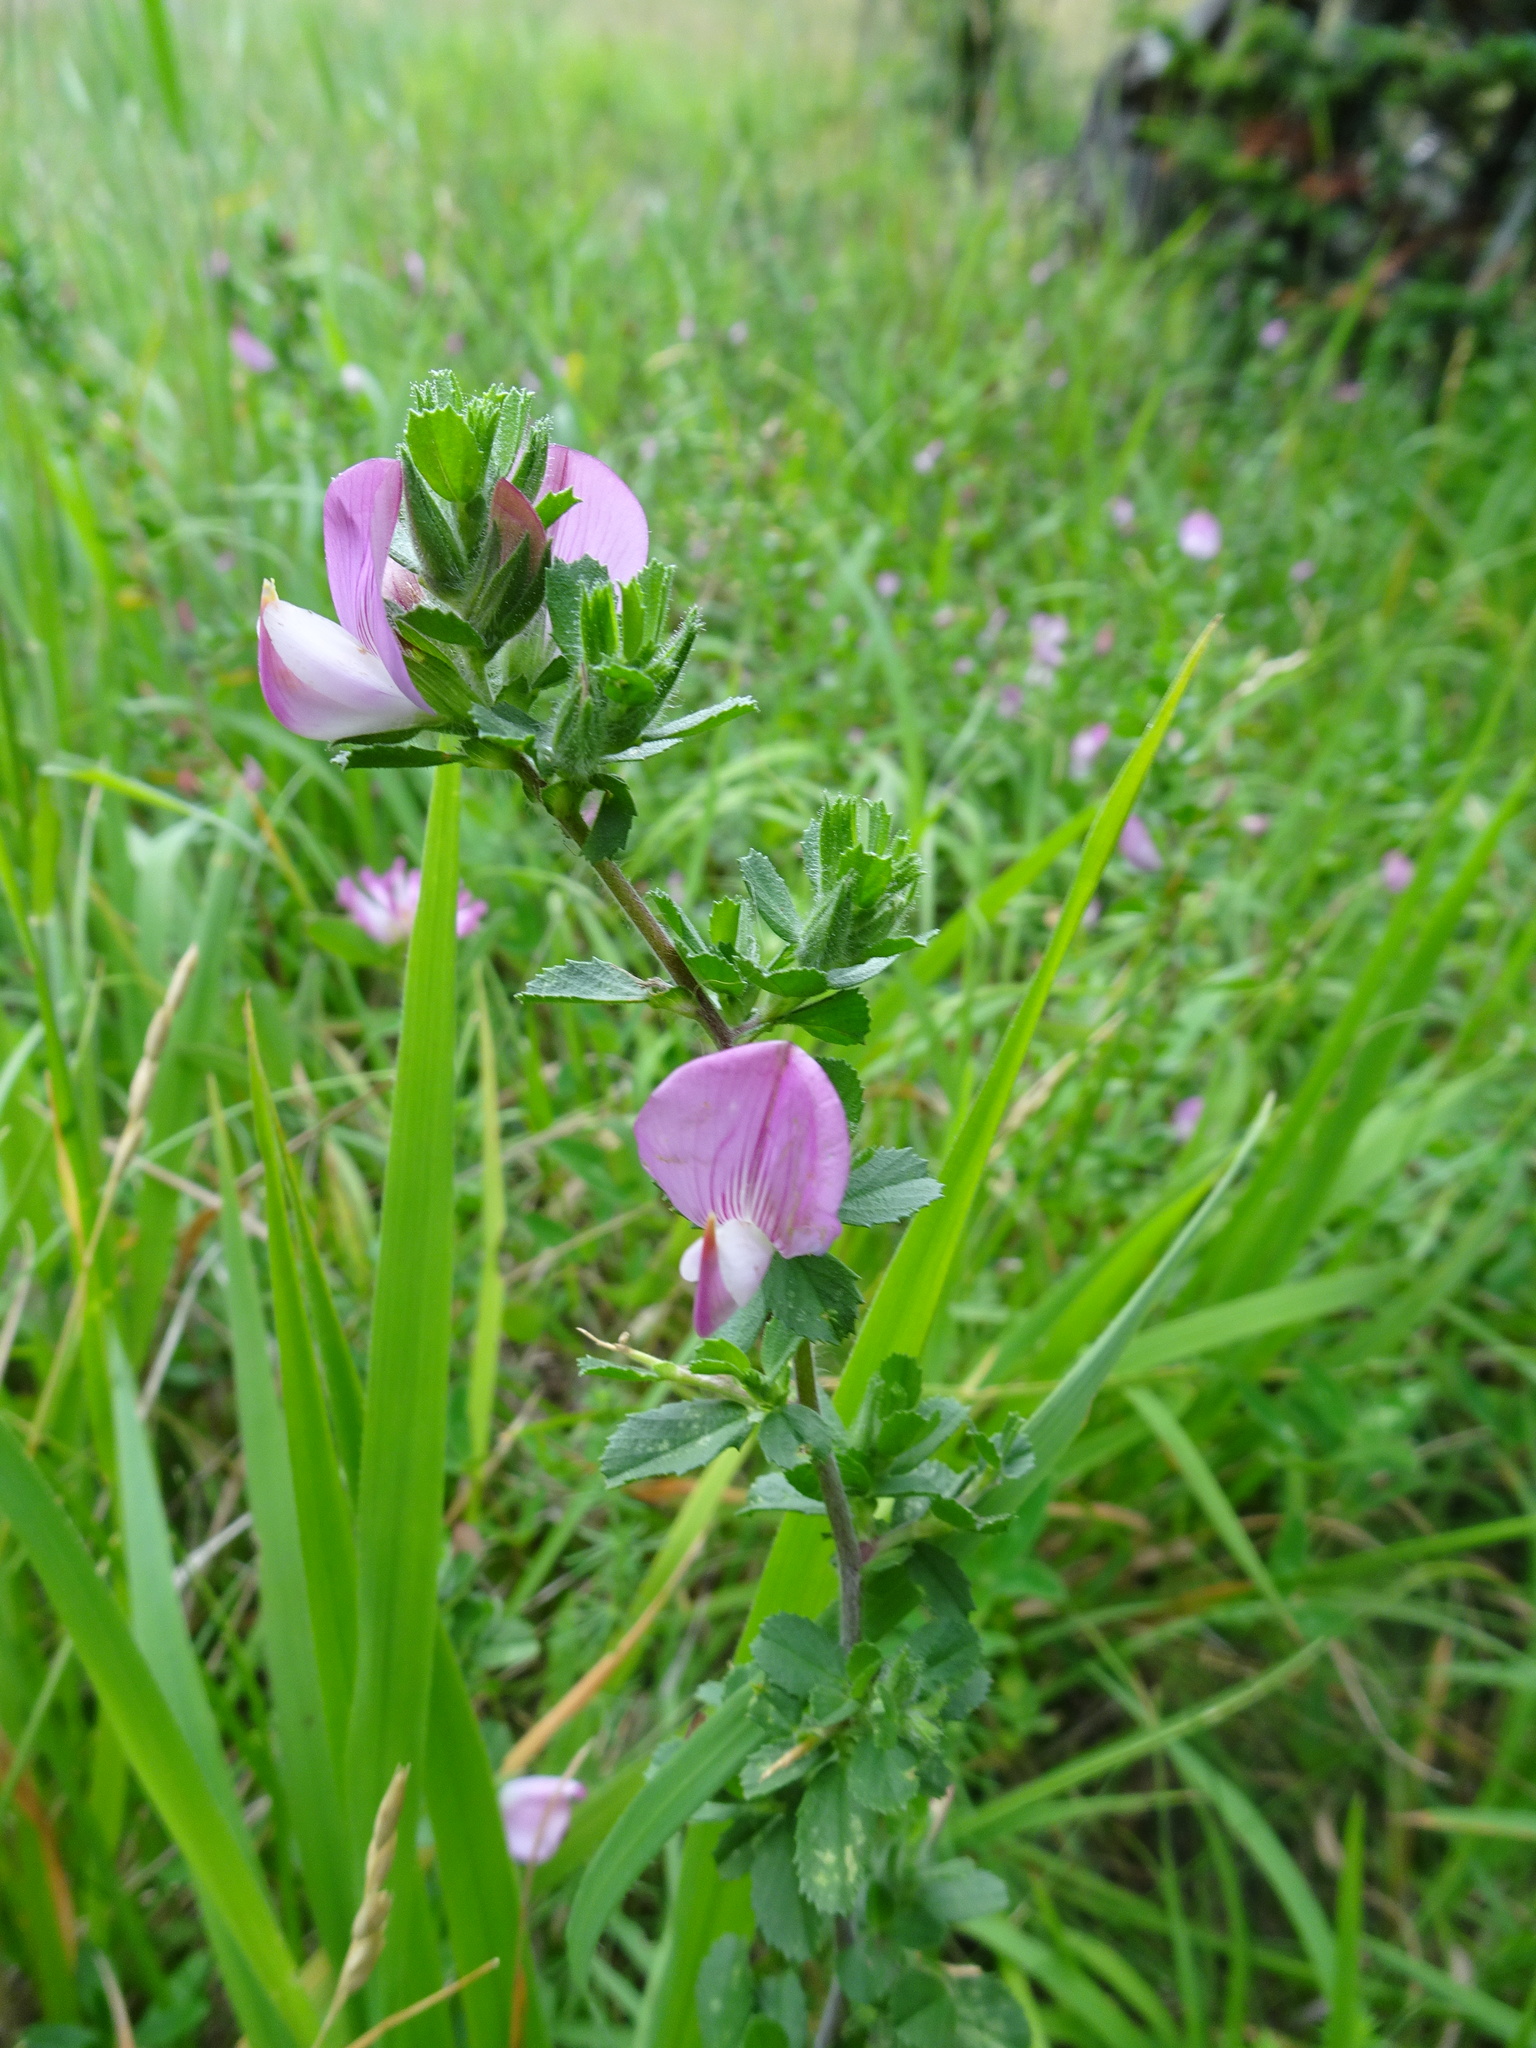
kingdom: Plantae
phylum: Tracheophyta
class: Magnoliopsida
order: Fabales
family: Fabaceae
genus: Ononis
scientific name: Ononis spinosa
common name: Spiny restharrow
